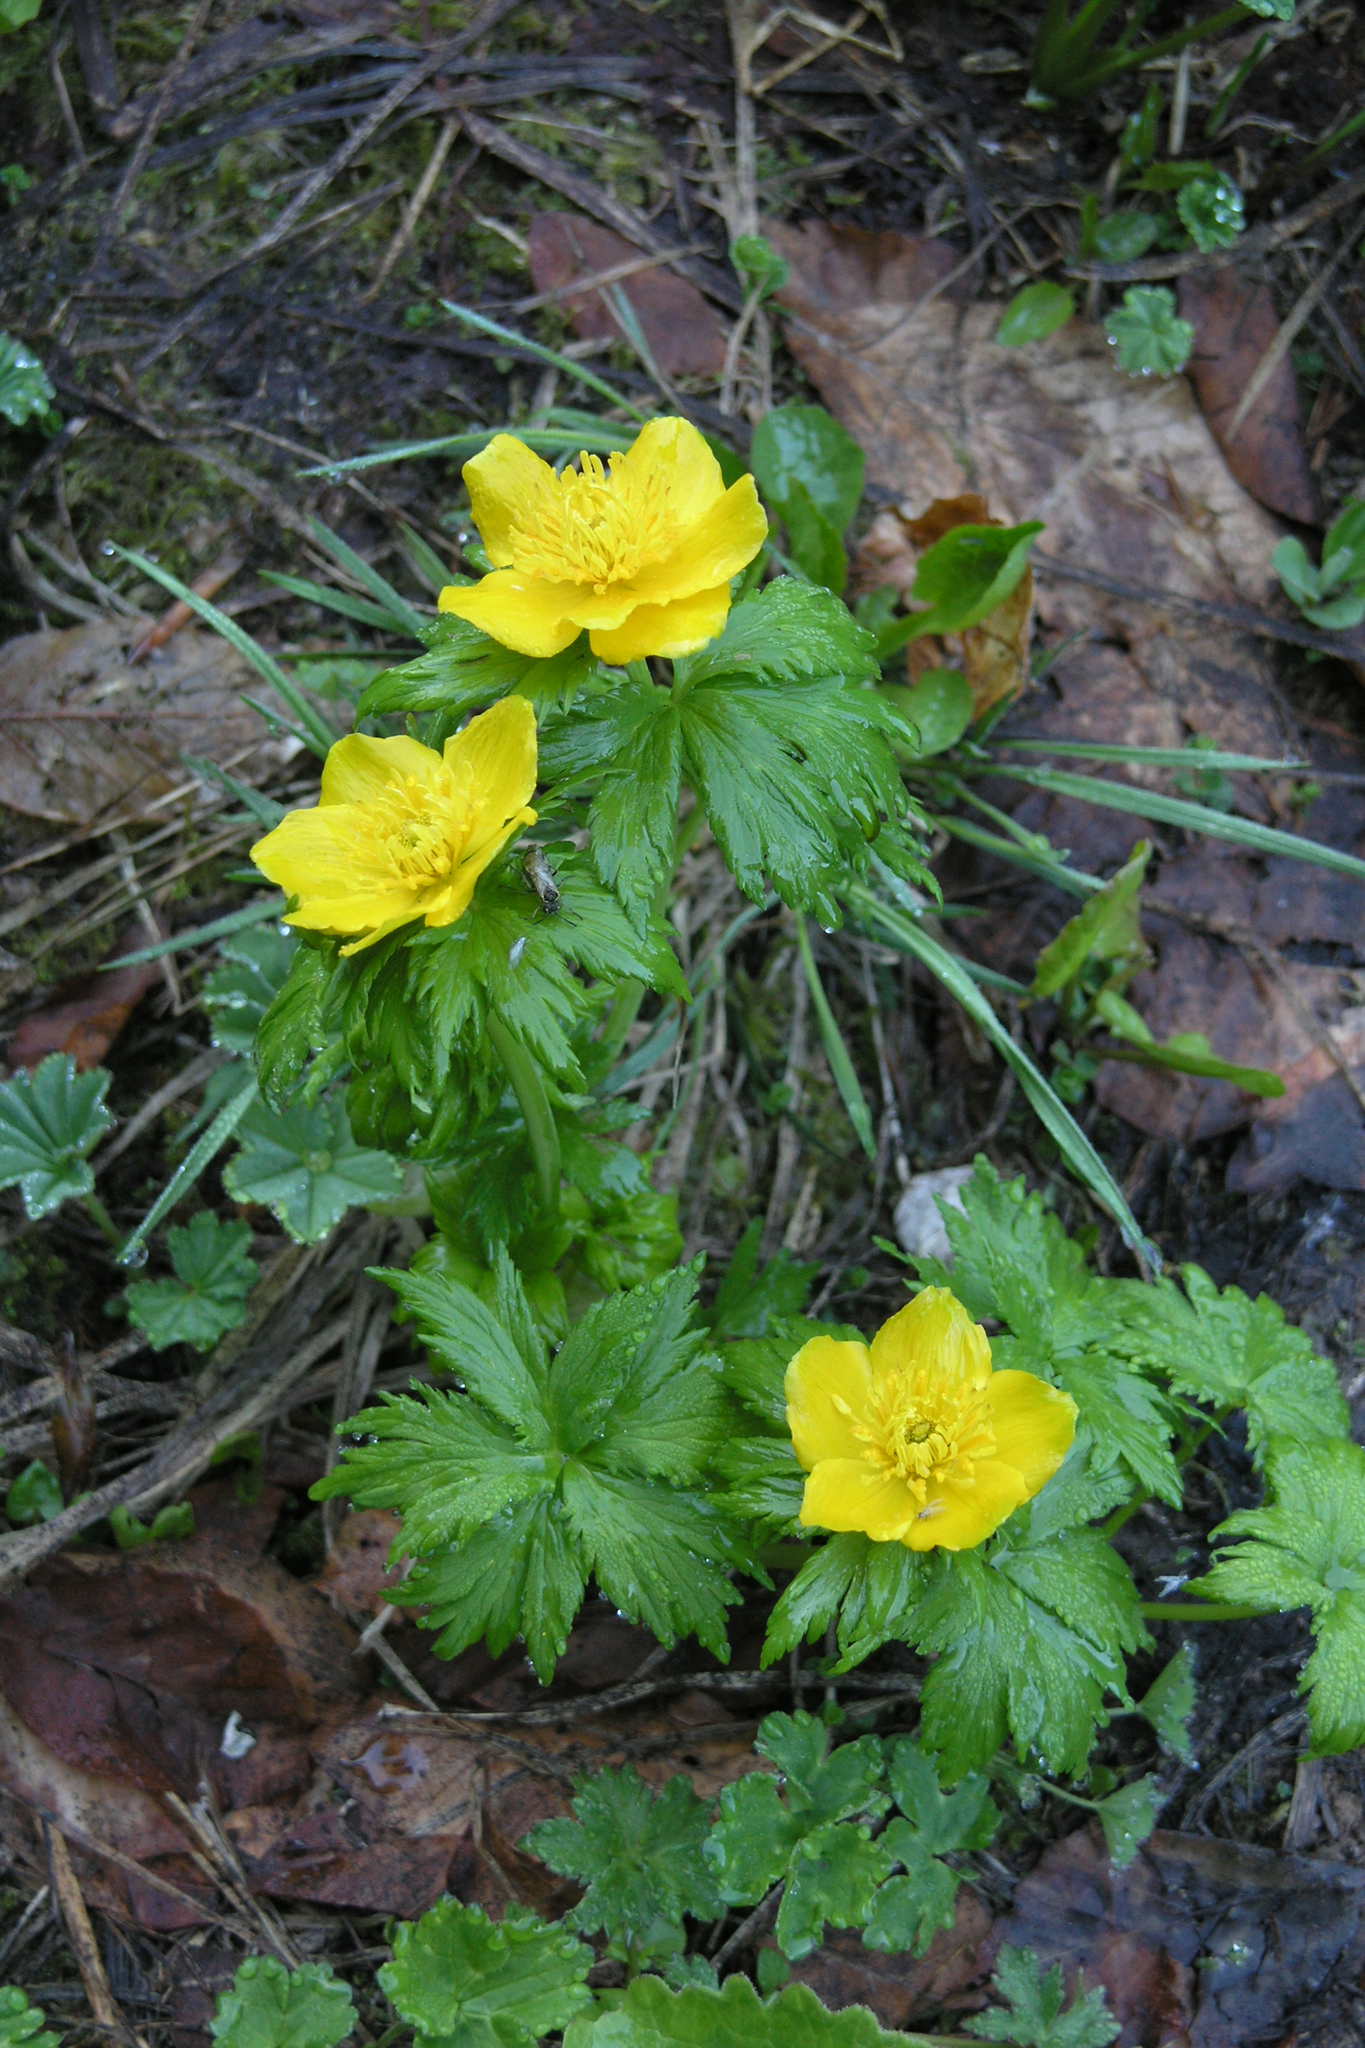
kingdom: Plantae
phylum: Tracheophyta
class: Magnoliopsida
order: Ranunculales
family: Ranunculaceae
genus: Trollius
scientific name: Trollius ranunculinus
